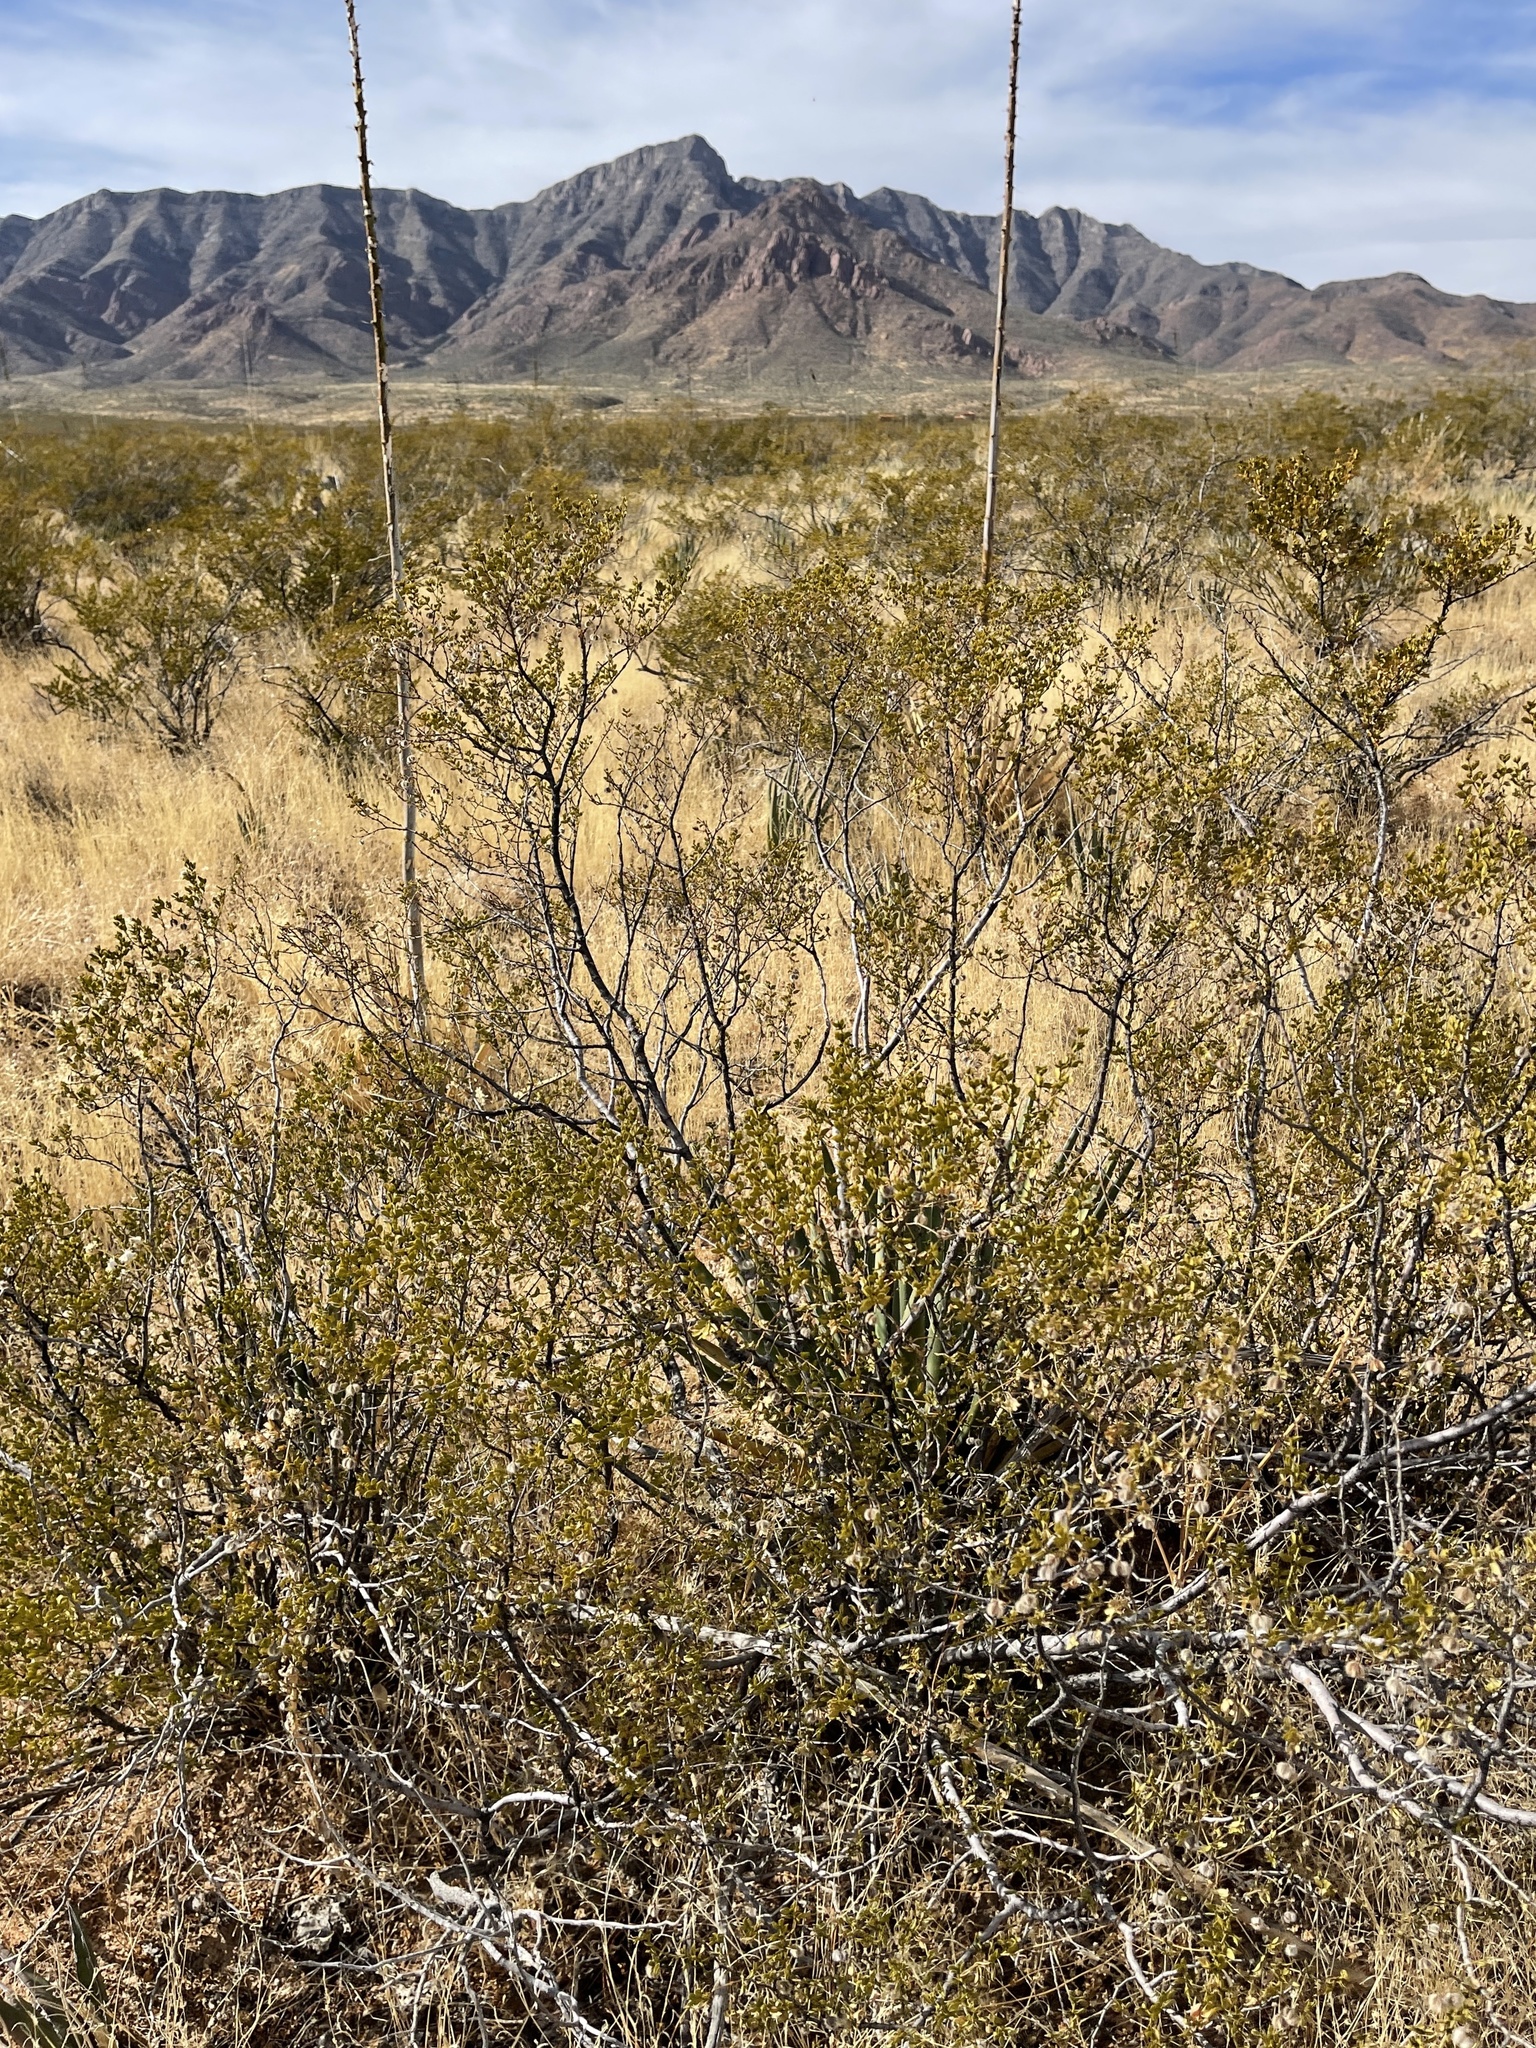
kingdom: Plantae
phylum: Tracheophyta
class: Magnoliopsida
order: Zygophyllales
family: Zygophyllaceae
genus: Larrea
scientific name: Larrea tridentata
